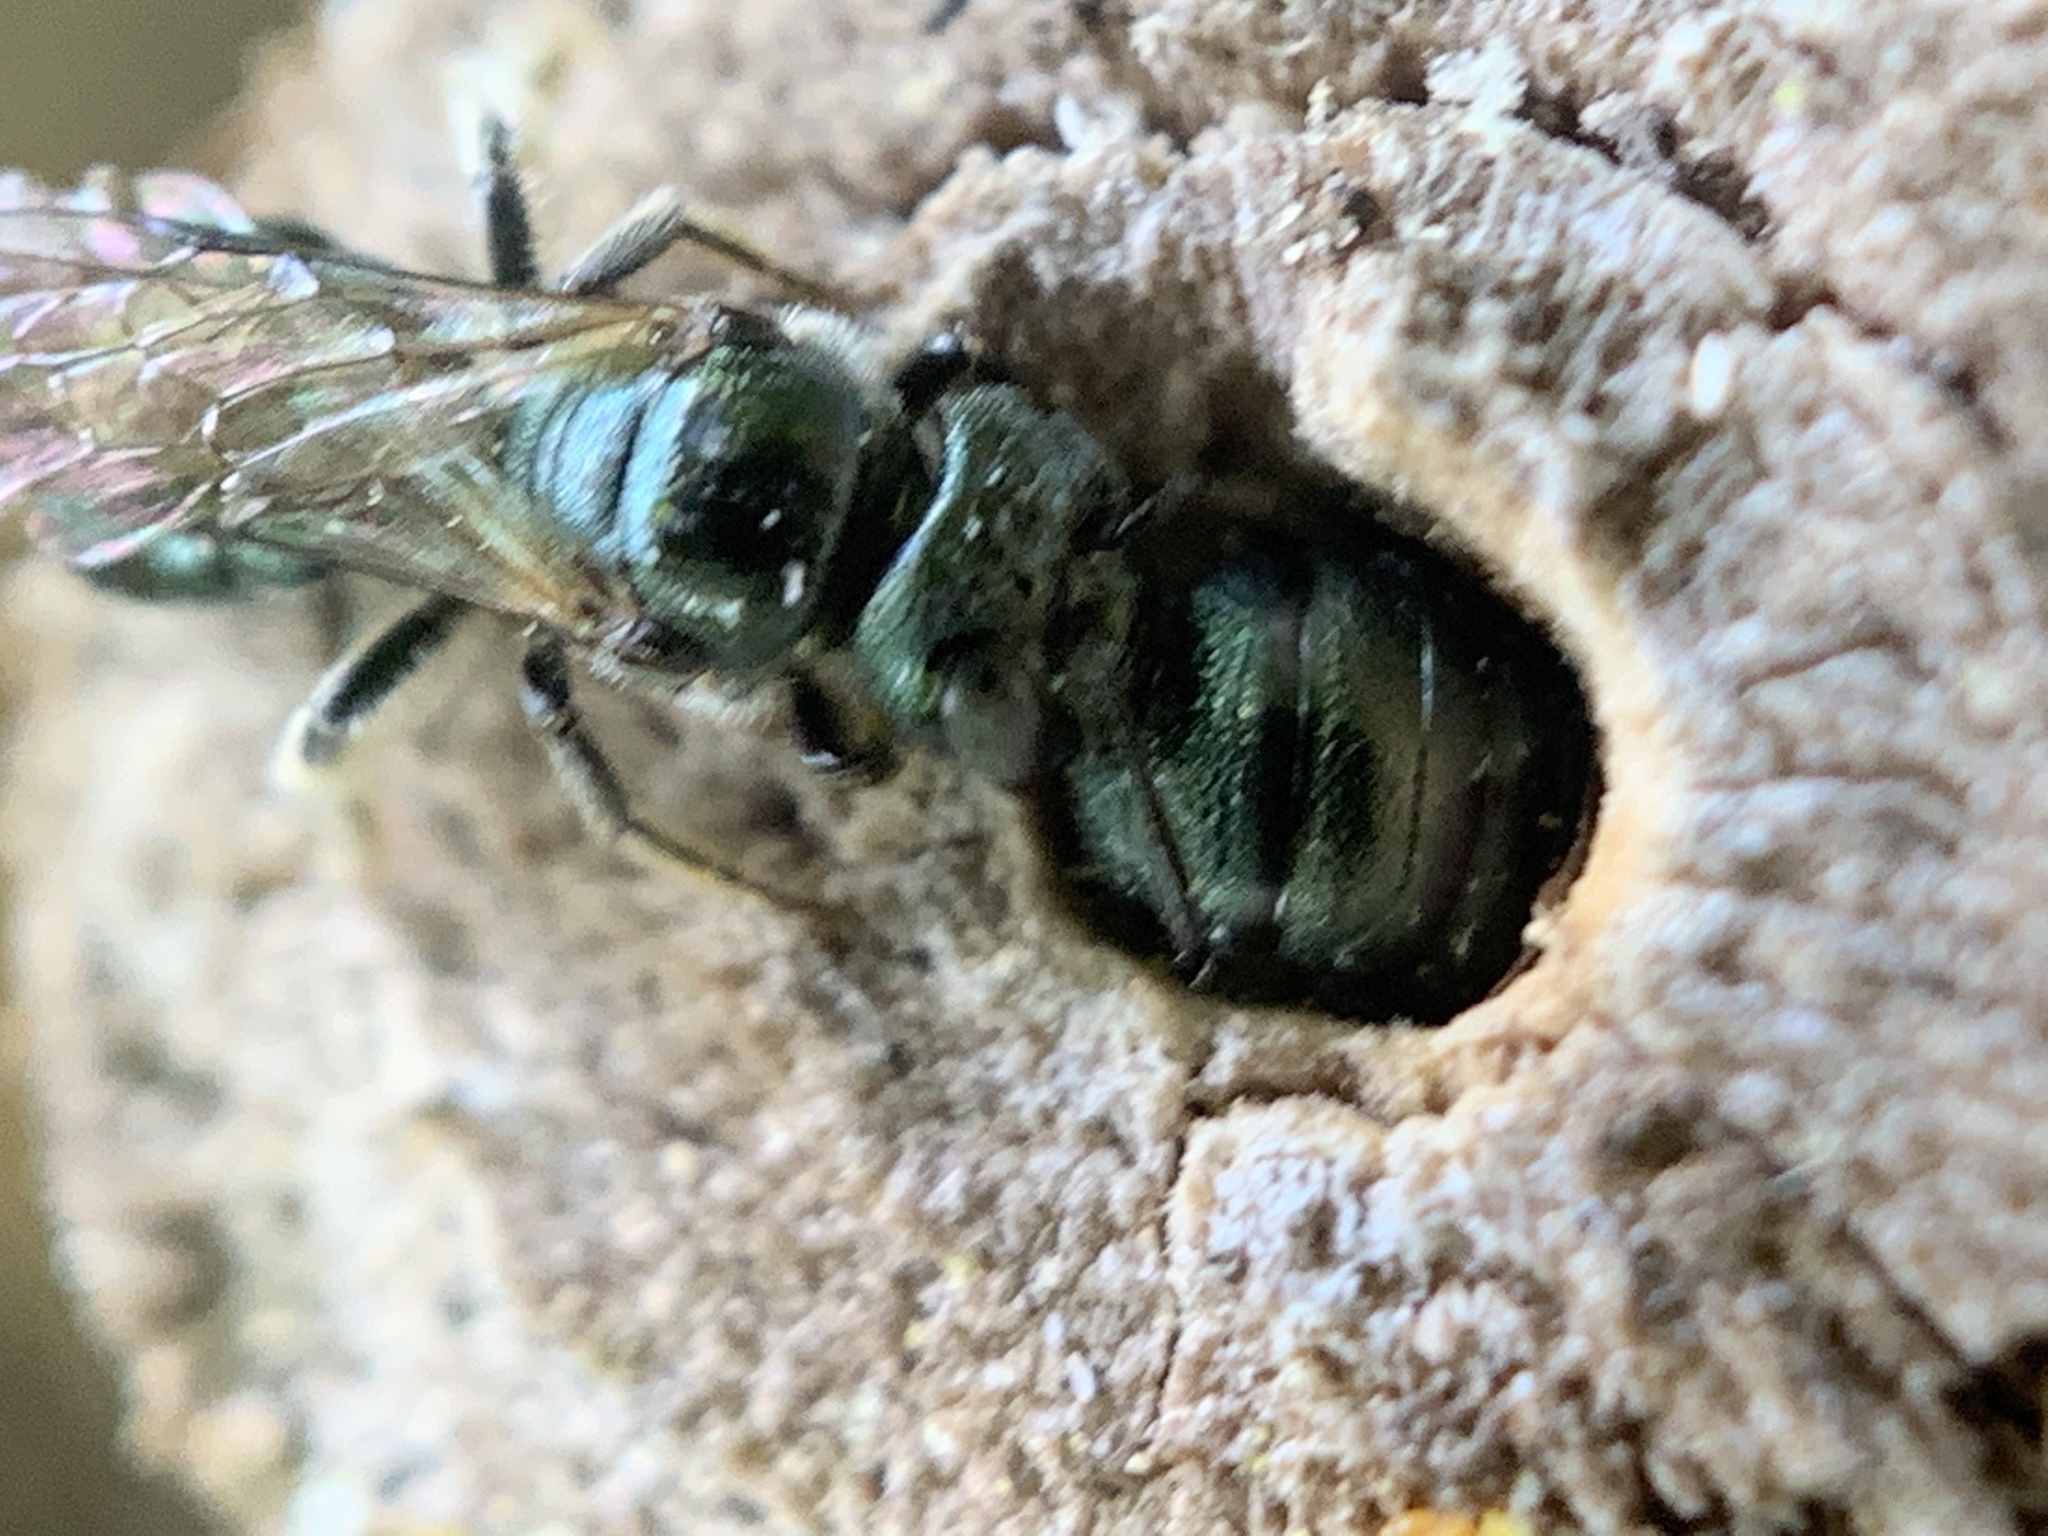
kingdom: Animalia
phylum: Arthropoda
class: Insecta
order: Hymenoptera
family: Apidae
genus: Zadontomerus
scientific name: Zadontomerus
